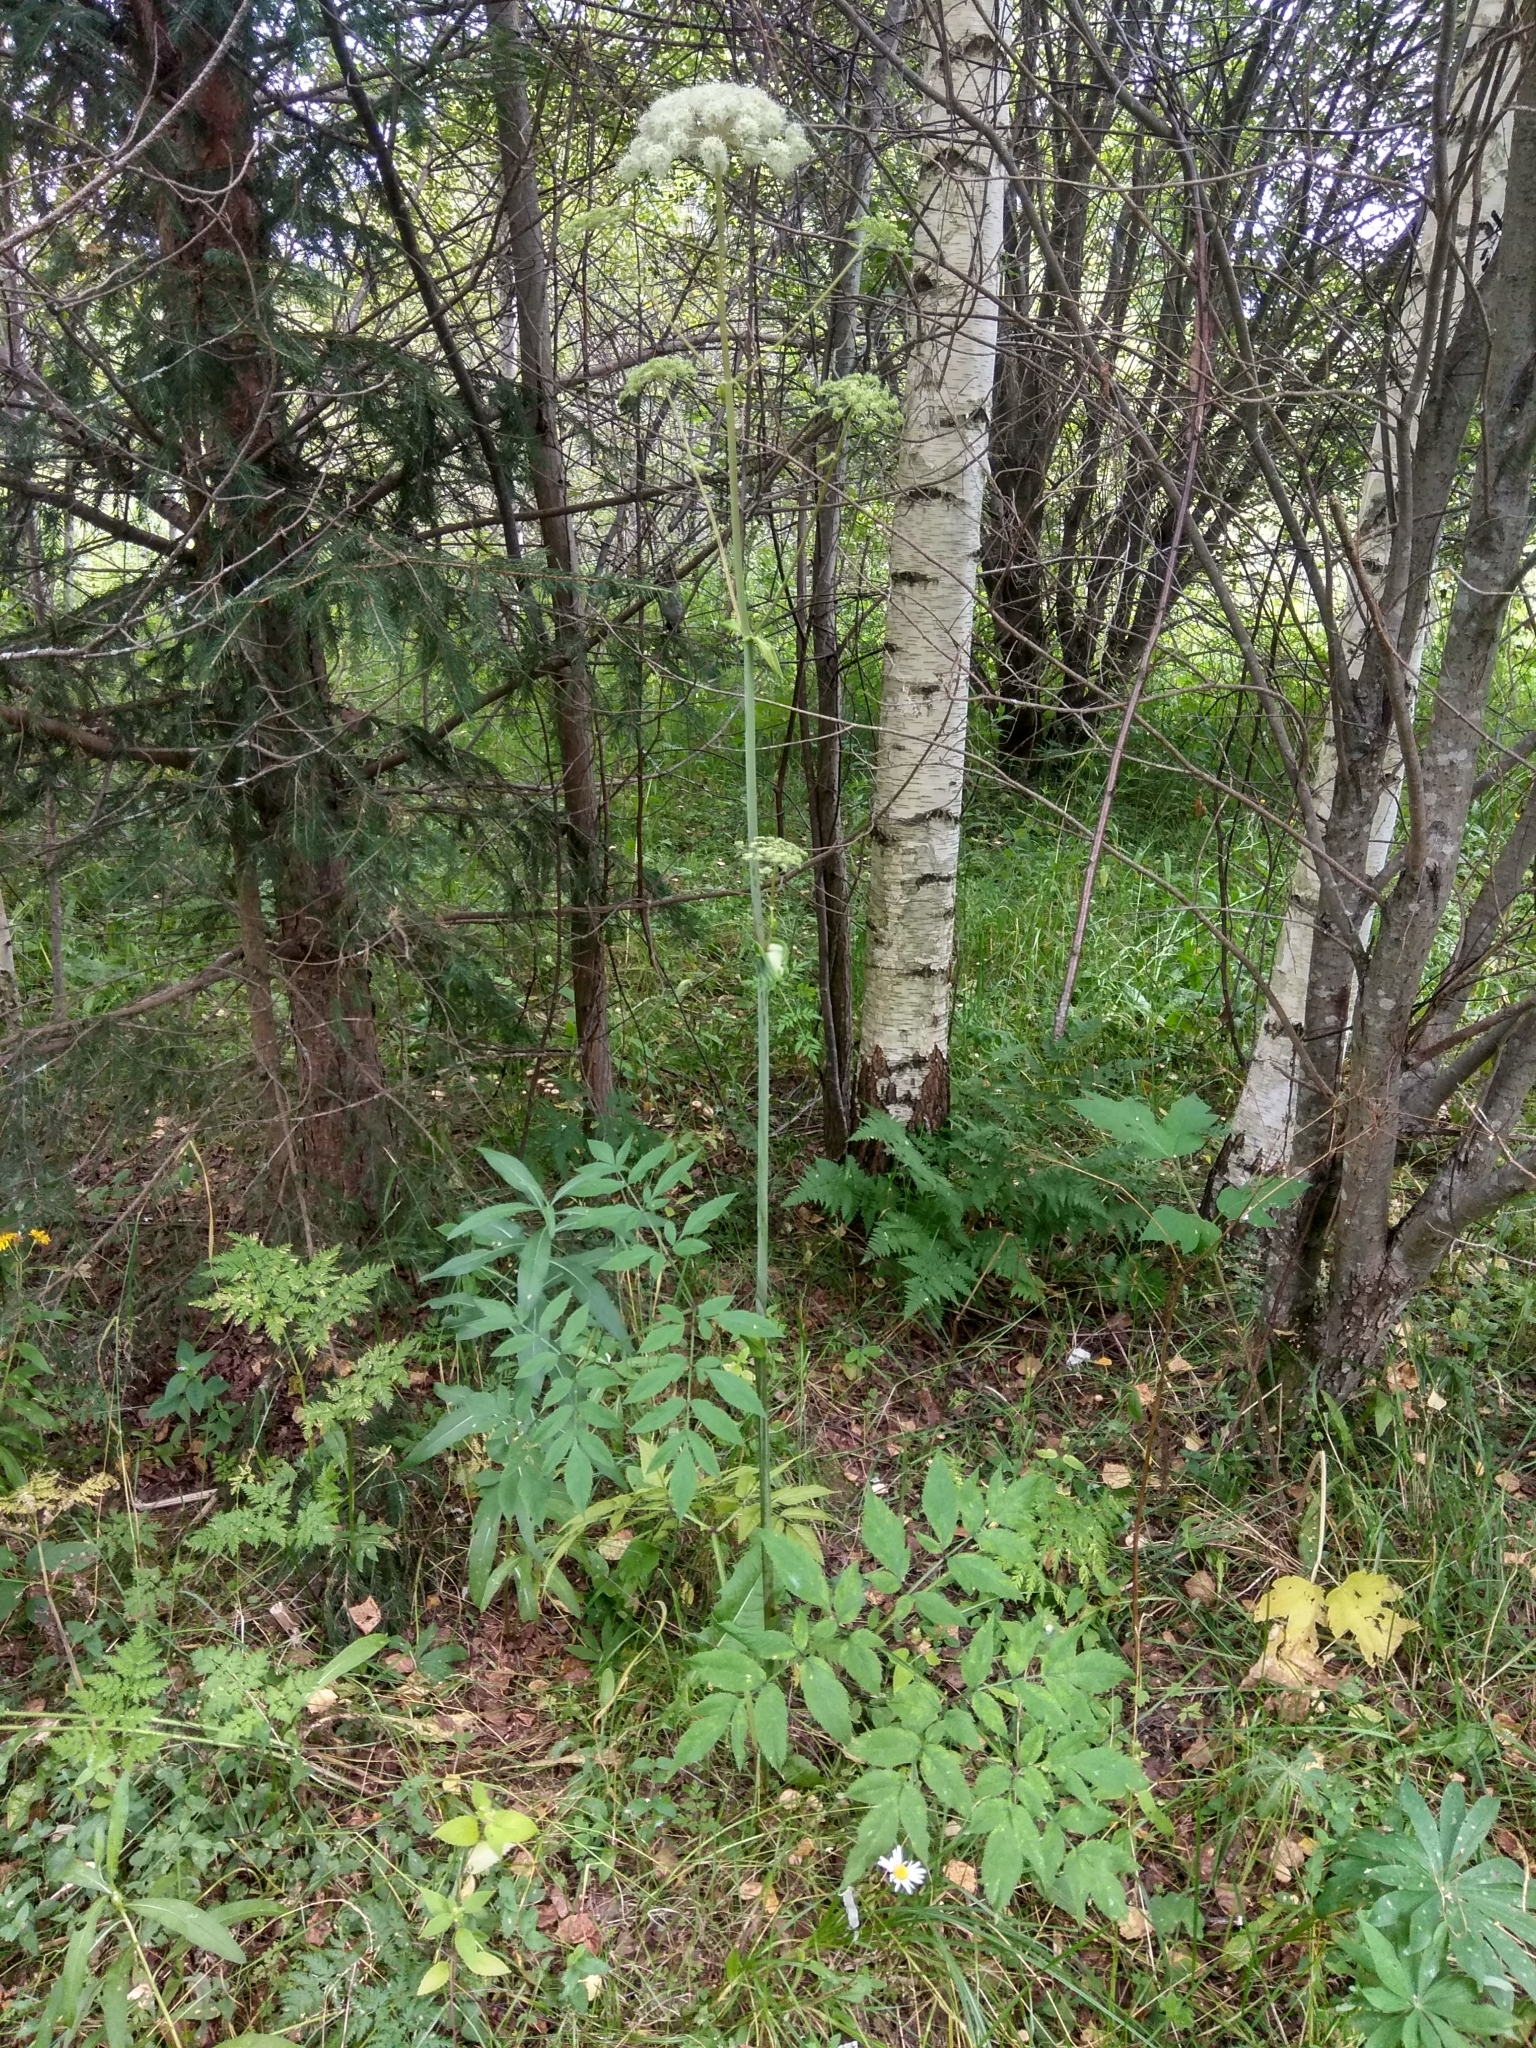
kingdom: Plantae
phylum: Tracheophyta
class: Magnoliopsida
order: Apiales
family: Apiaceae
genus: Angelica
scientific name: Angelica sylvestris
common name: Wild angelica
